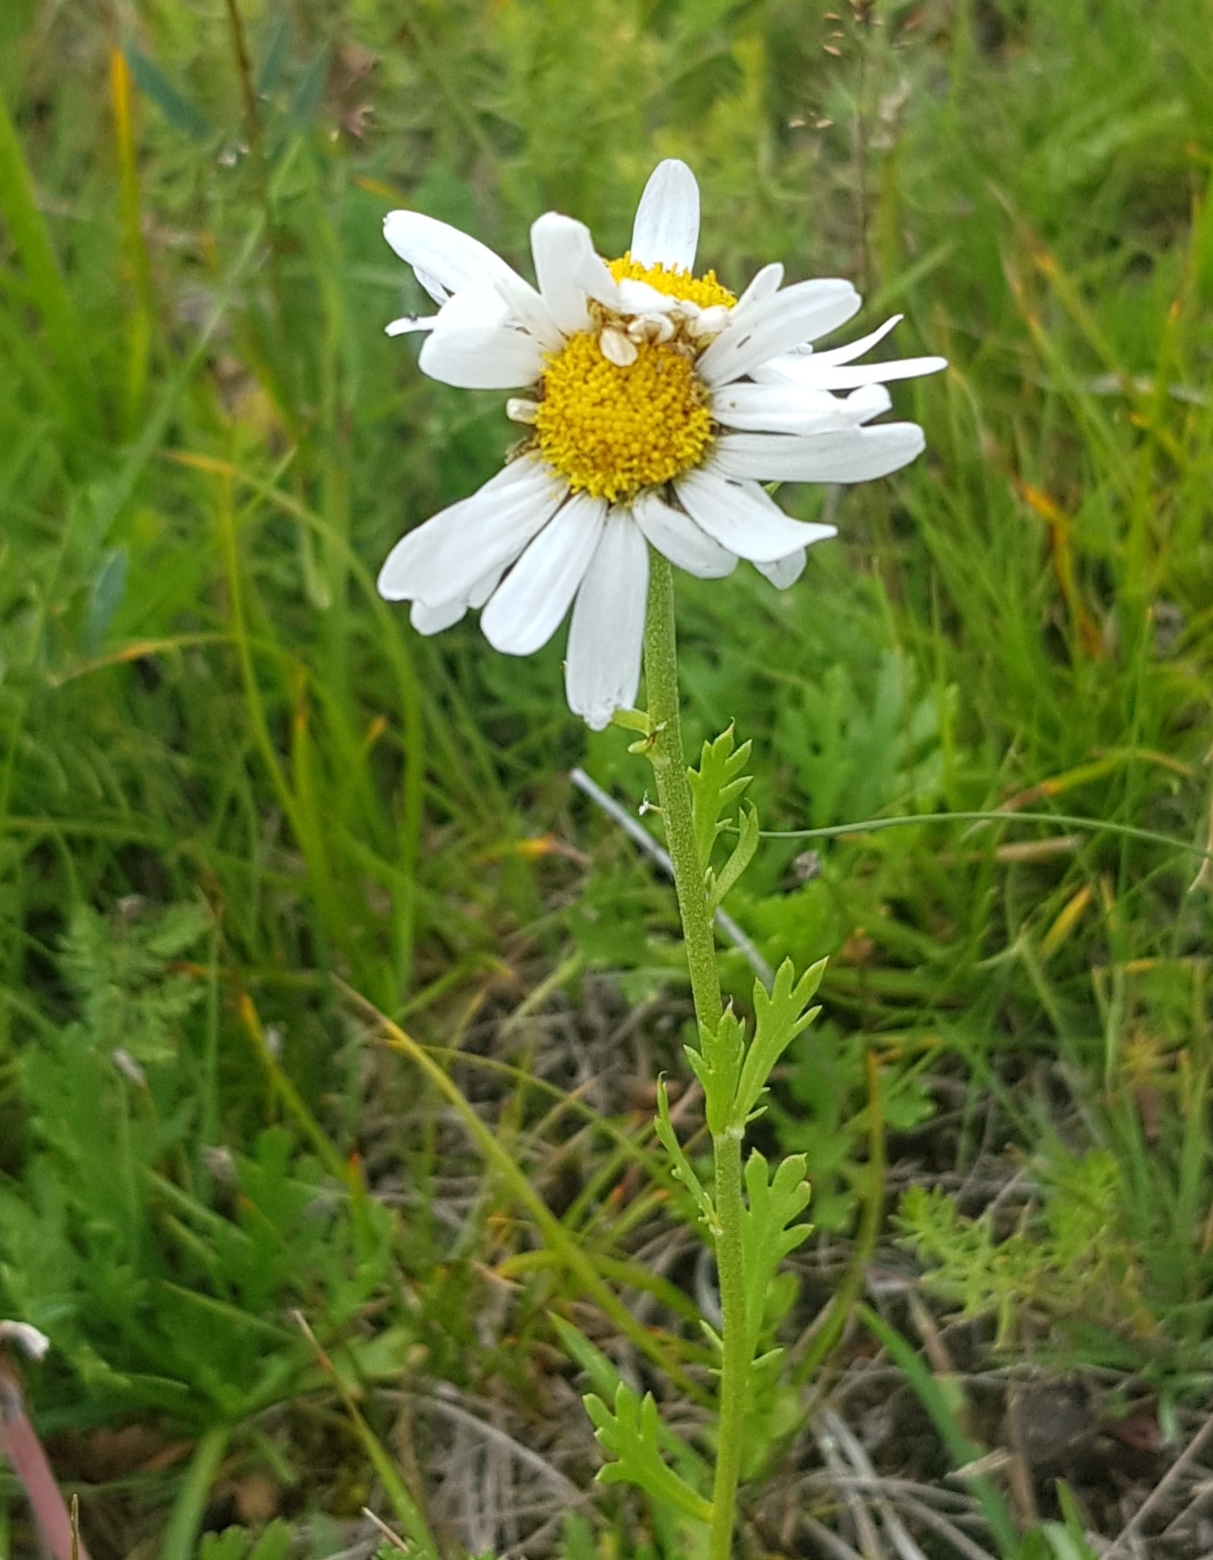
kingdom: Plantae
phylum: Tracheophyta
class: Magnoliopsida
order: Asterales
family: Asteraceae
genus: Chrysanthemum
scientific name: Chrysanthemum zawadzkii
